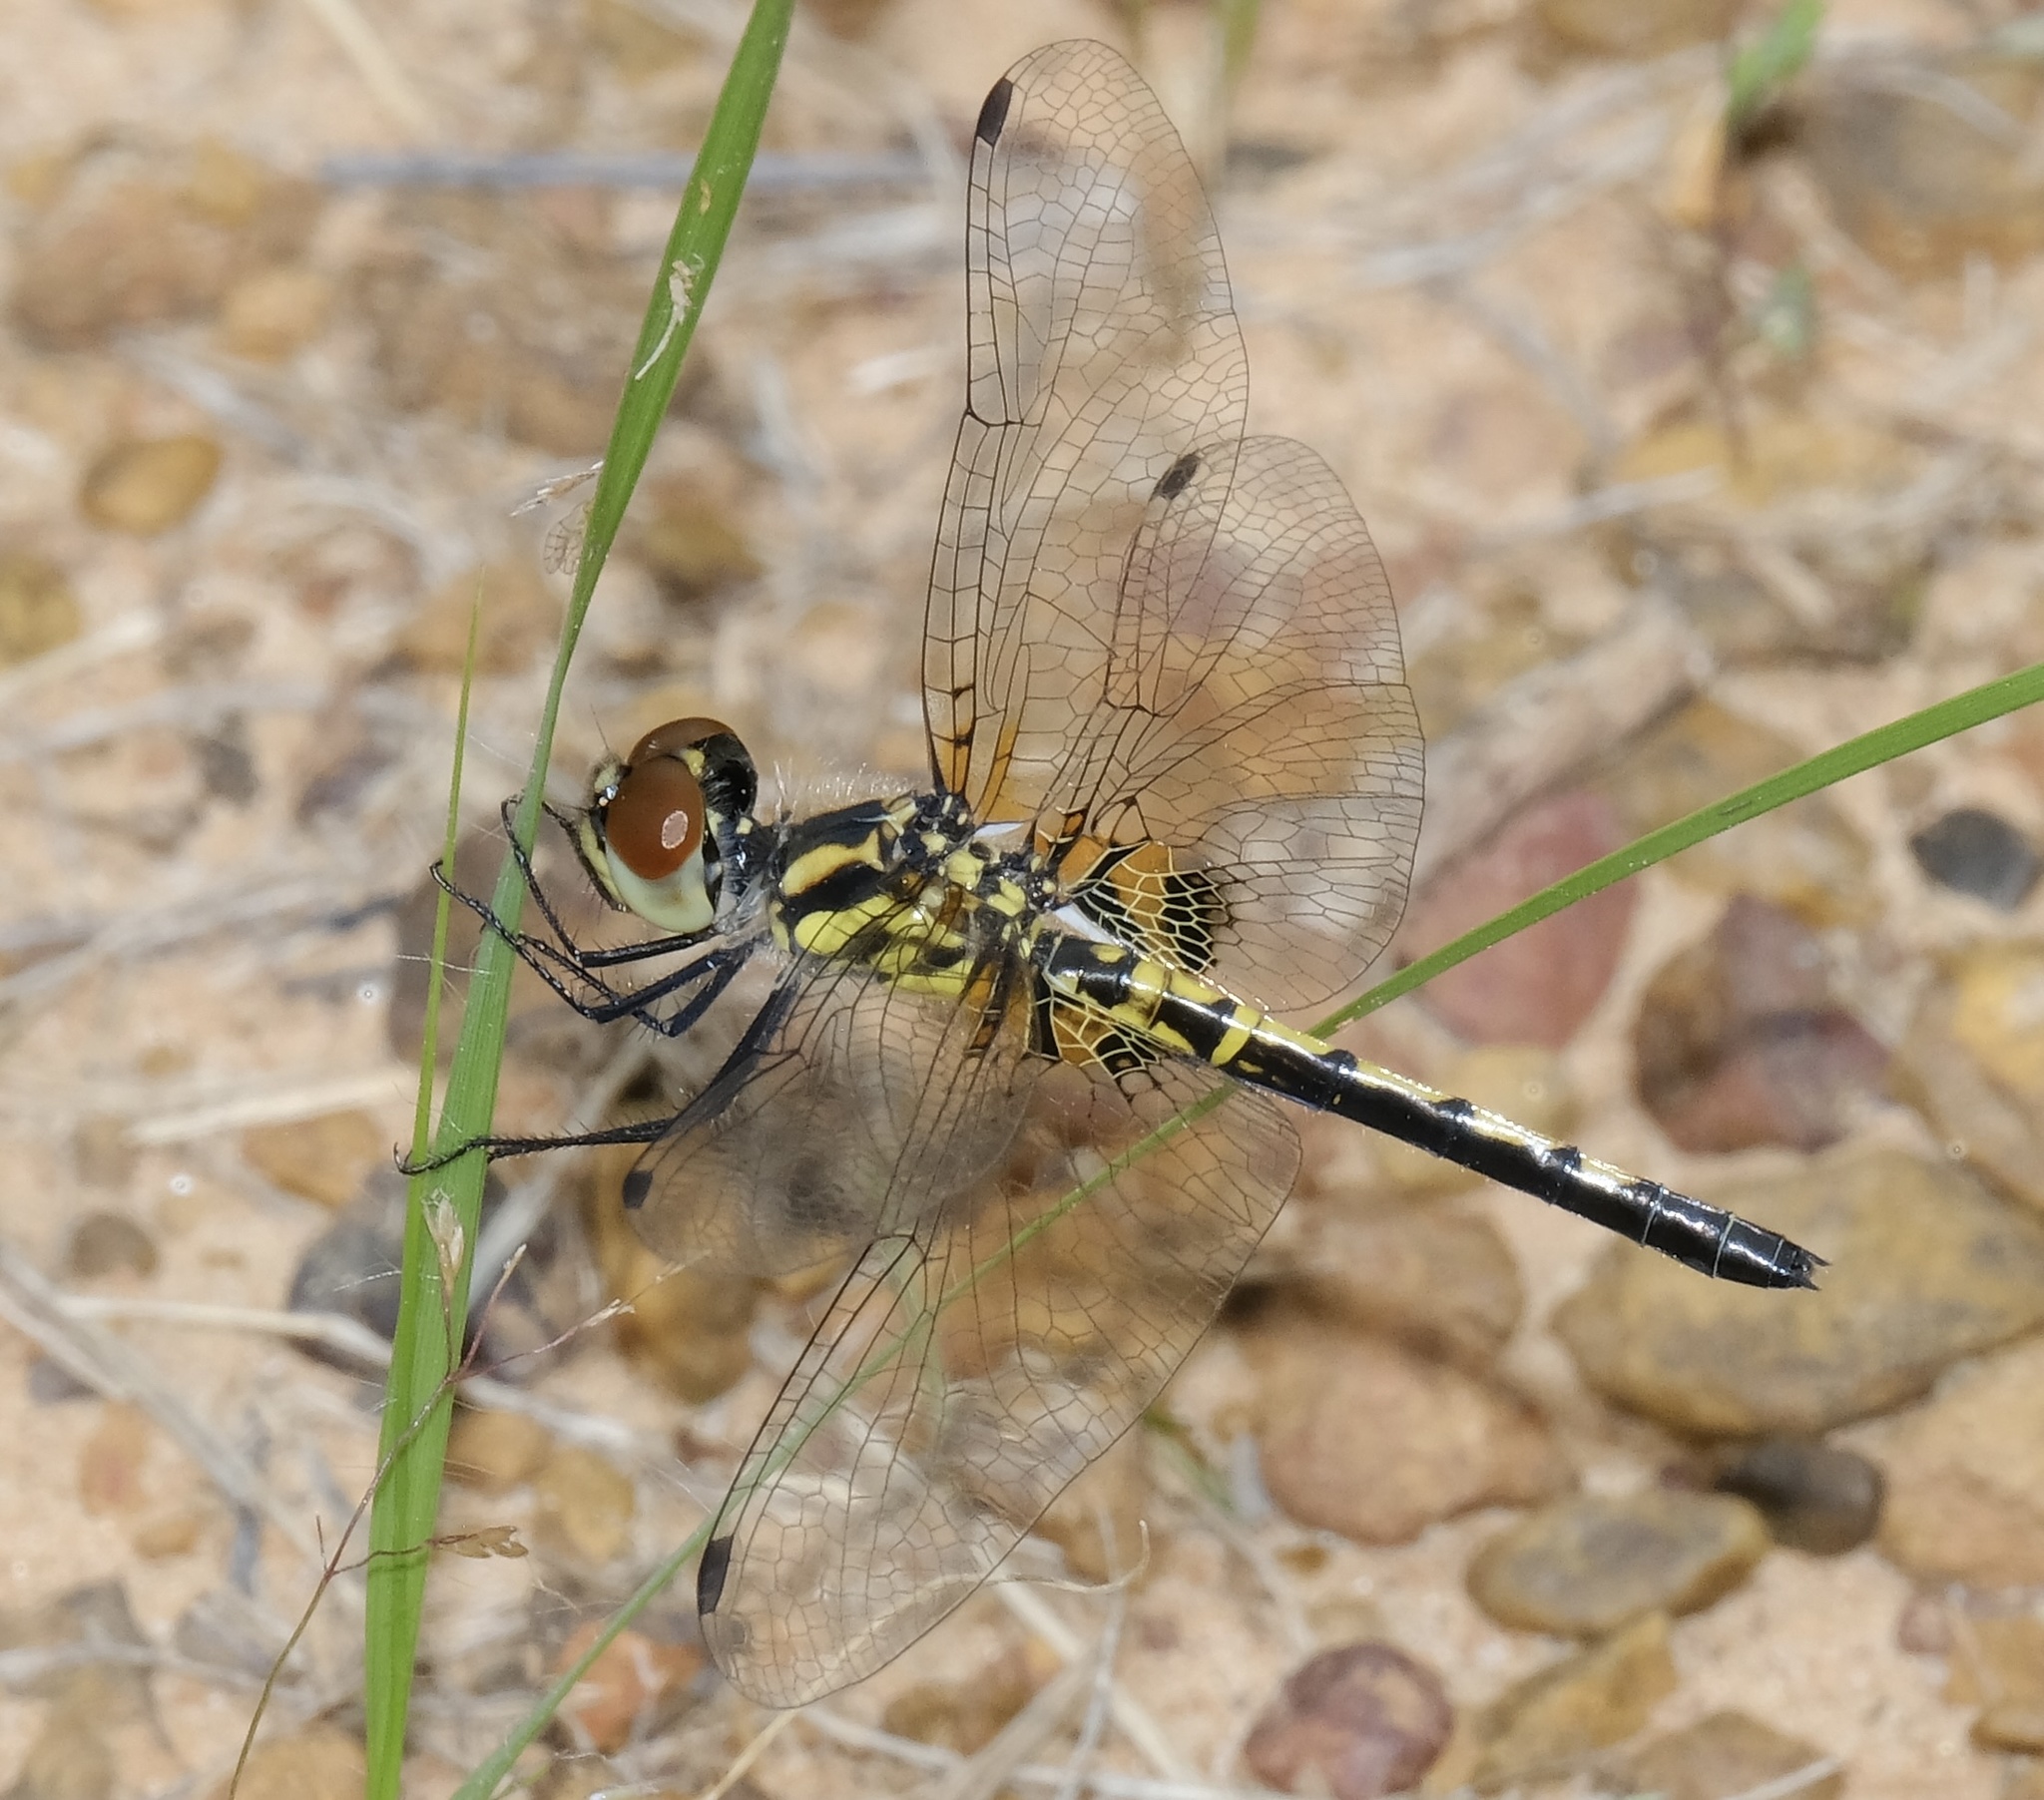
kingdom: Animalia
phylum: Arthropoda
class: Insecta
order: Odonata
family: Libellulidae
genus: Celithemis
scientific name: Celithemis ornata
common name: Ornate pennant
